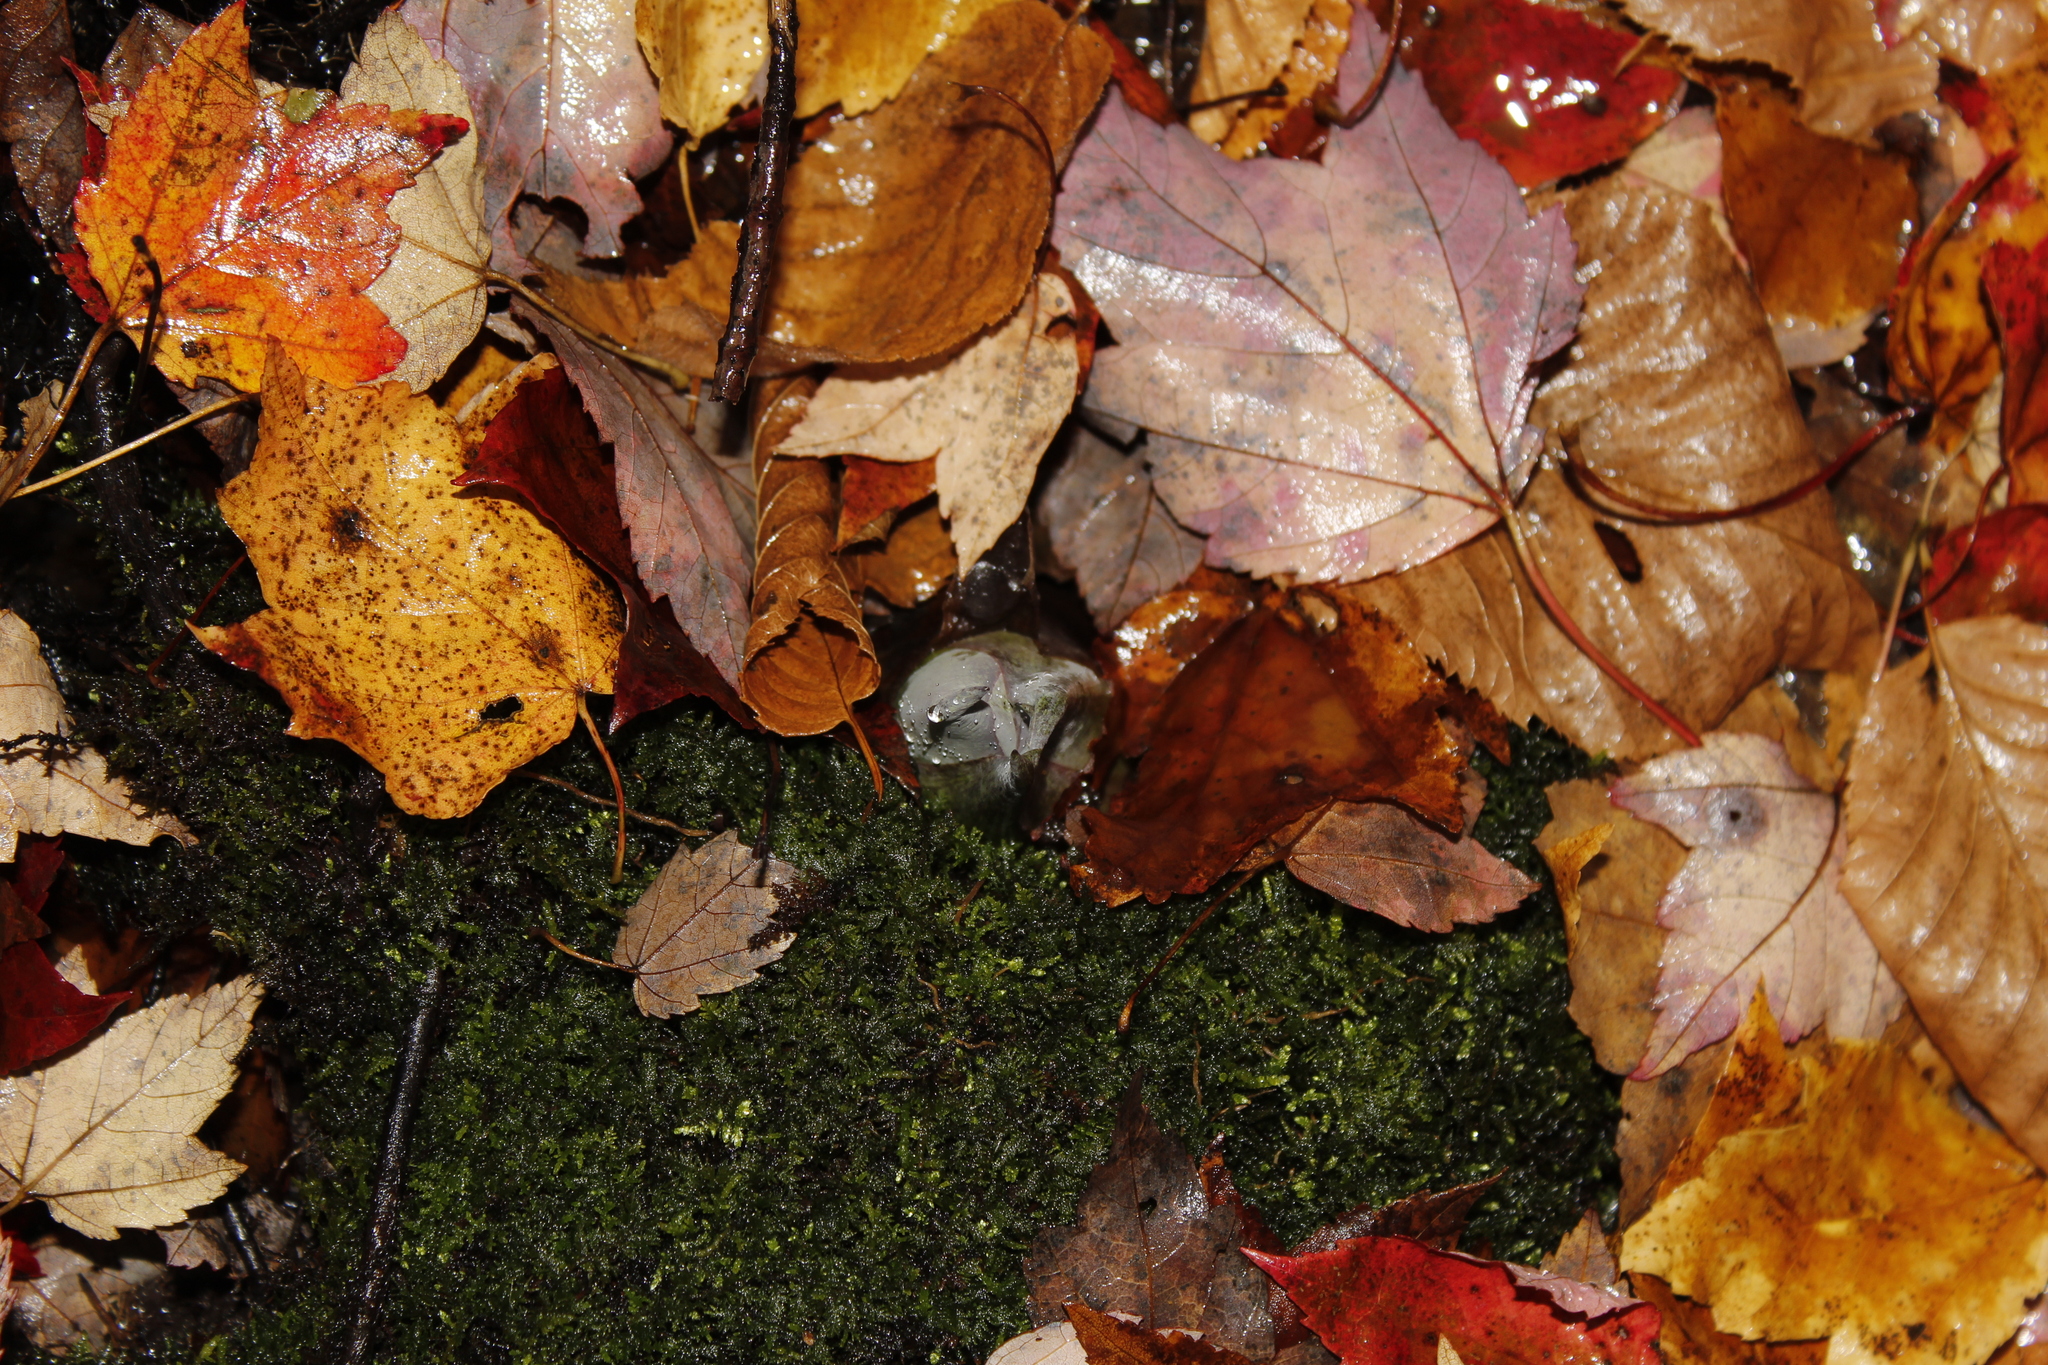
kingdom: Plantae
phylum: Tracheophyta
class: Liliopsida
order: Alismatales
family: Araceae
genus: Symplocarpus
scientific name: Symplocarpus foetidus
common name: Eastern skunk cabbage
